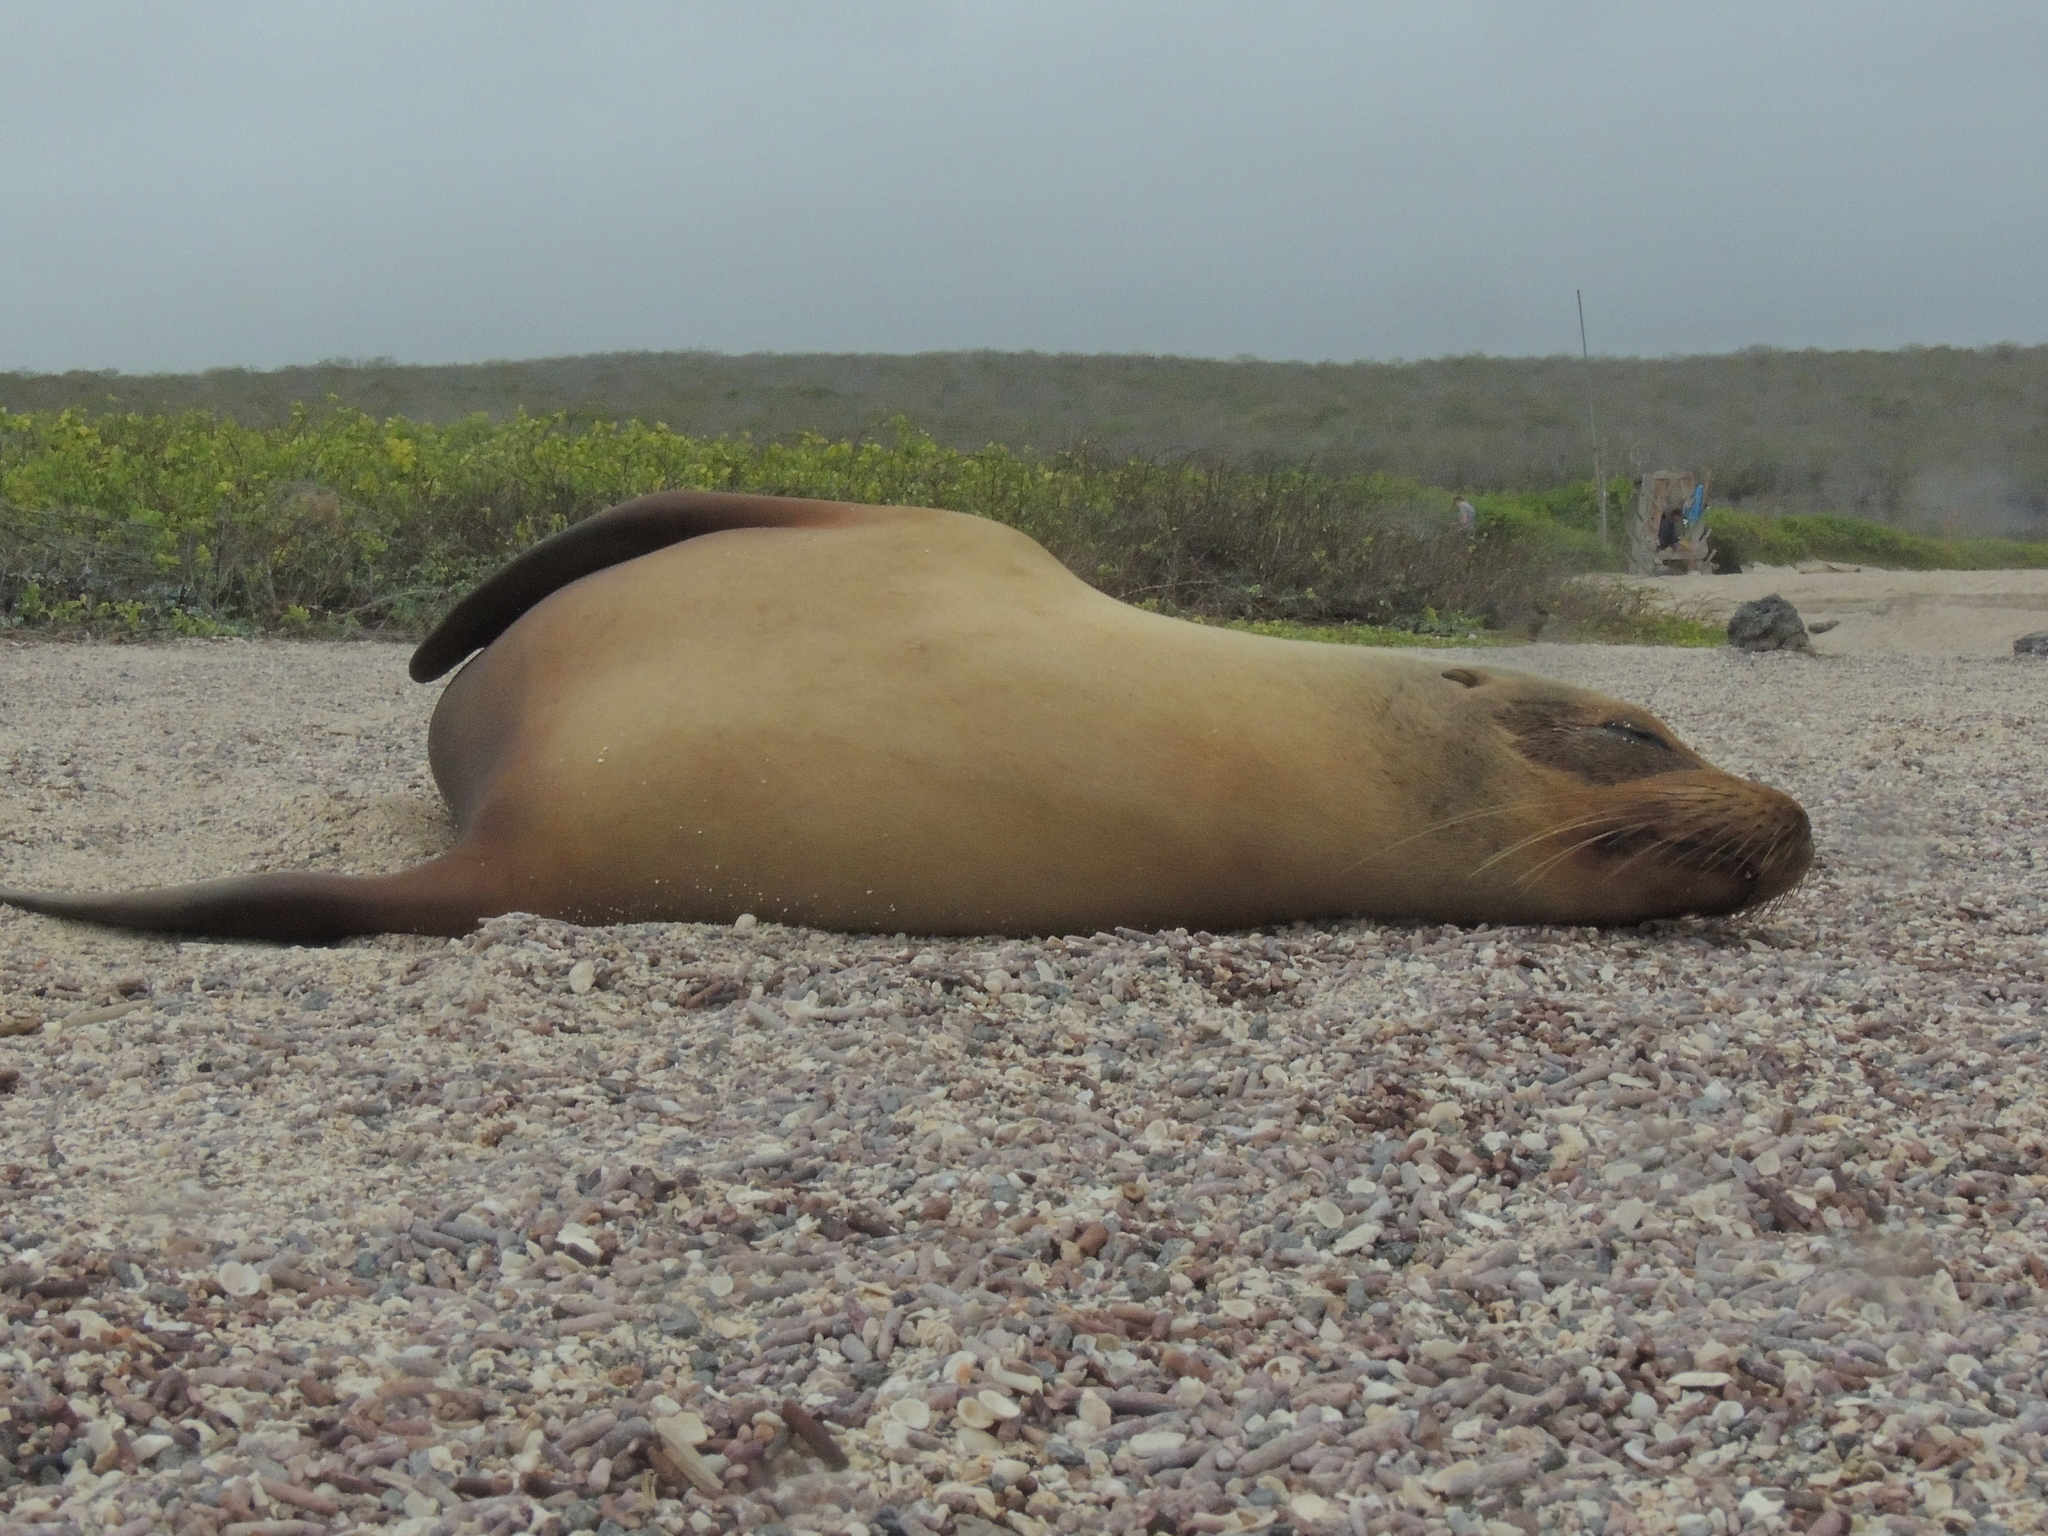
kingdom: Animalia
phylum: Chordata
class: Mammalia
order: Carnivora
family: Otariidae
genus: Zalophus
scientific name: Zalophus wollebaeki
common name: Galapagos sea lion
